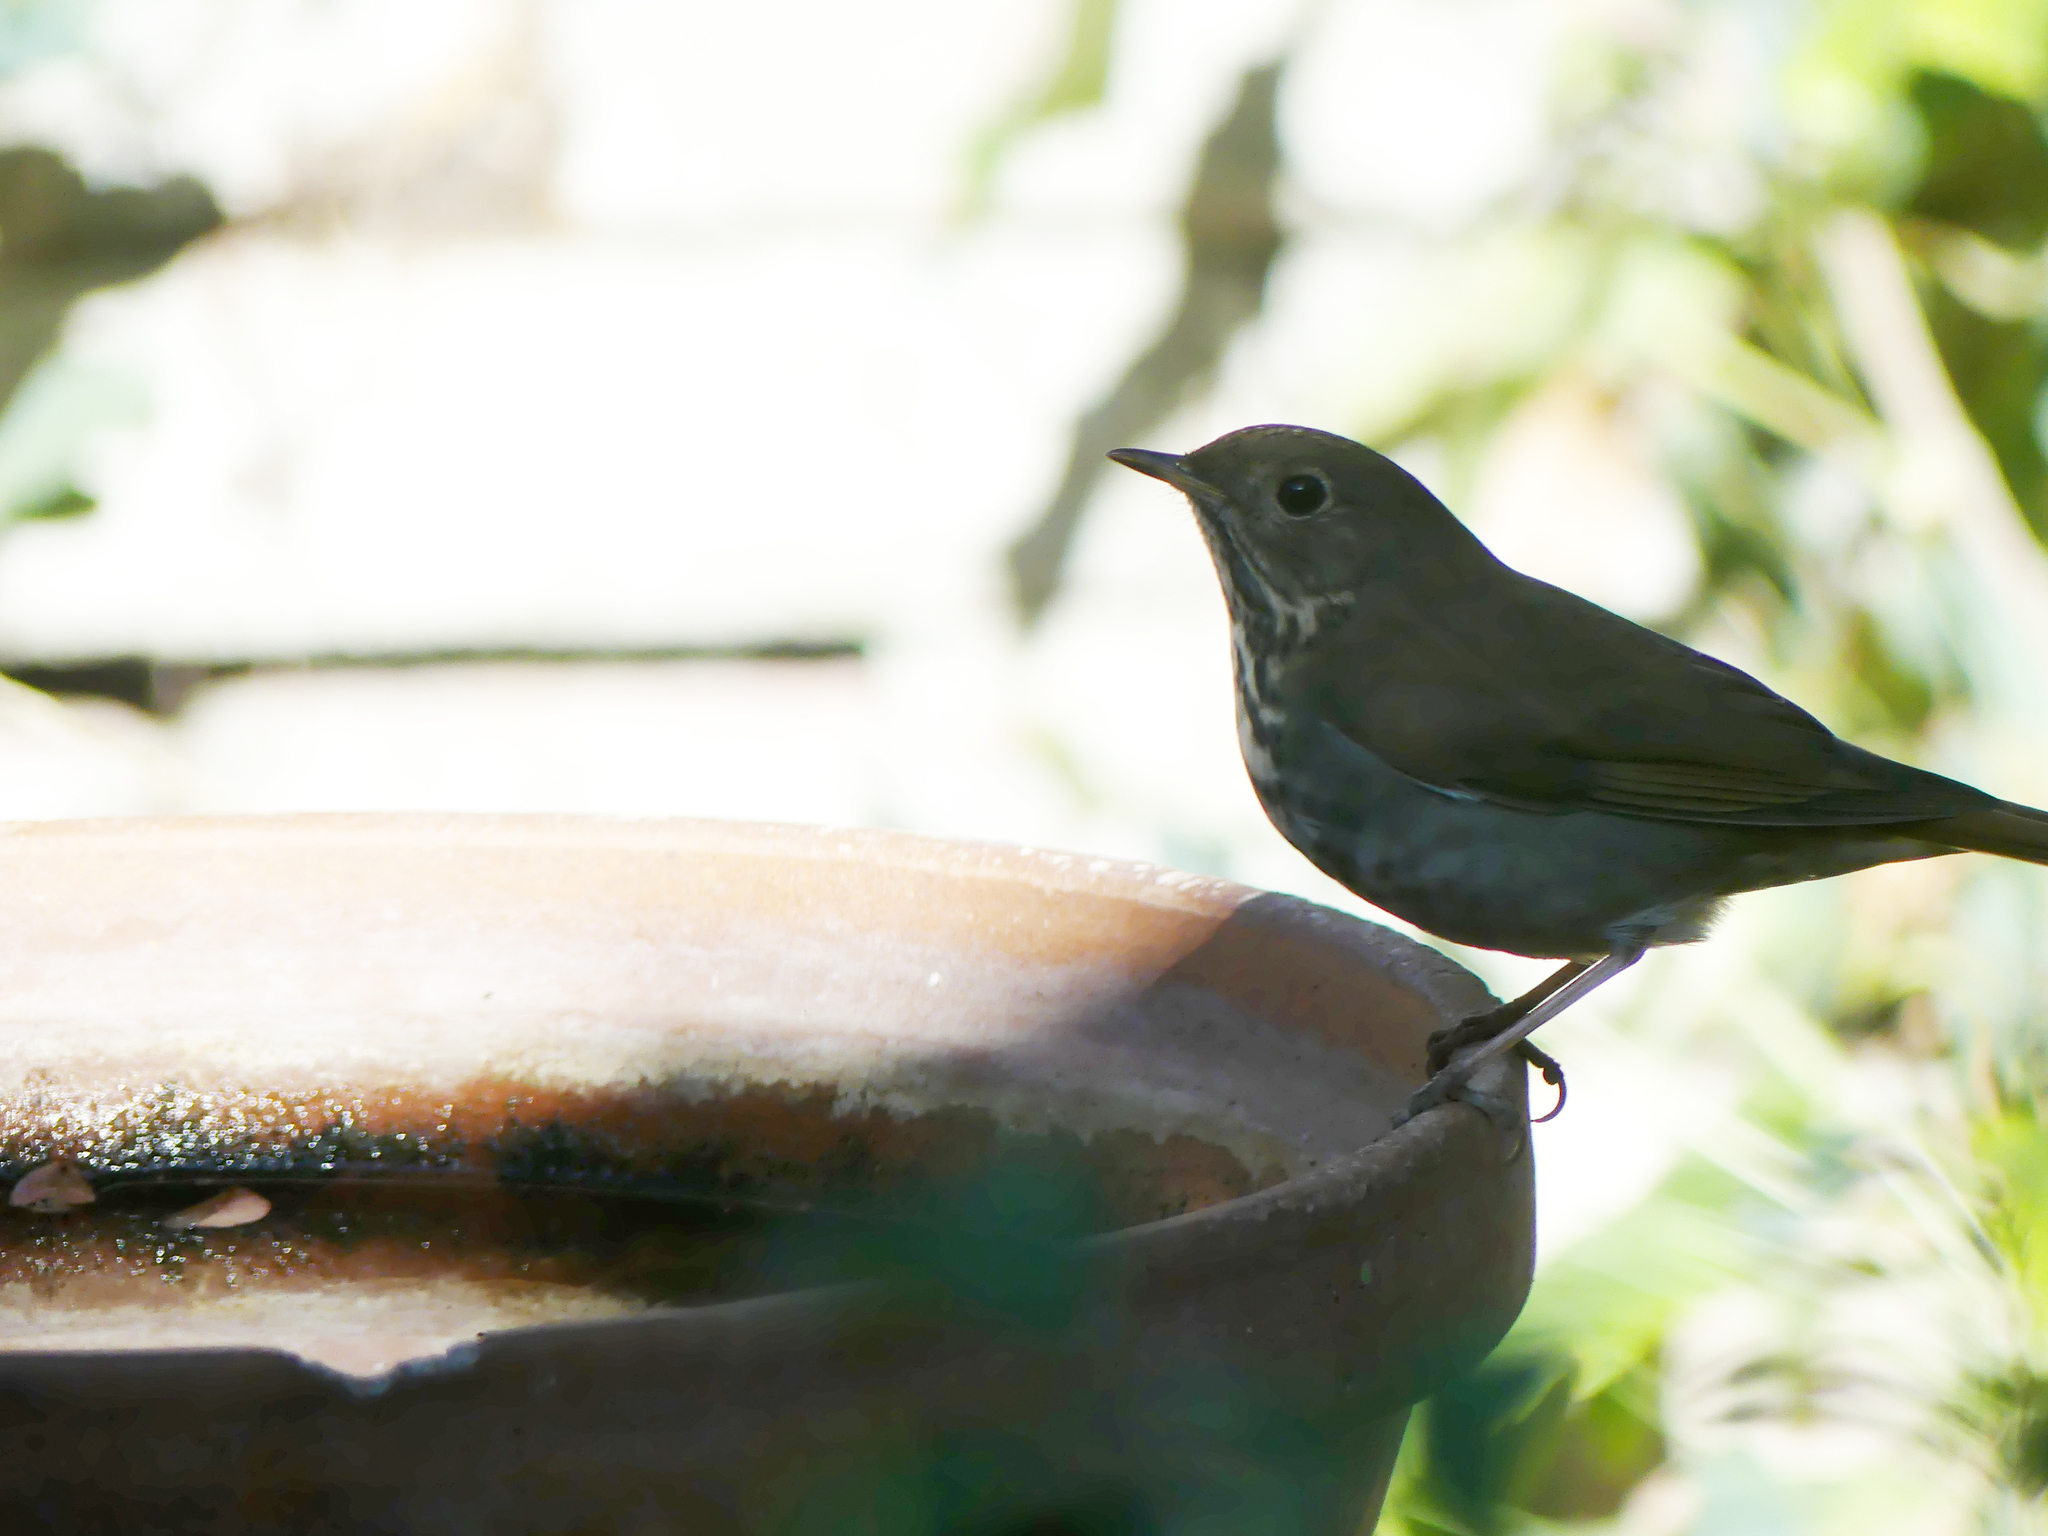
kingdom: Animalia
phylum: Chordata
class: Aves
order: Passeriformes
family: Turdidae
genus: Catharus
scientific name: Catharus guttatus
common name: Hermit thrush
